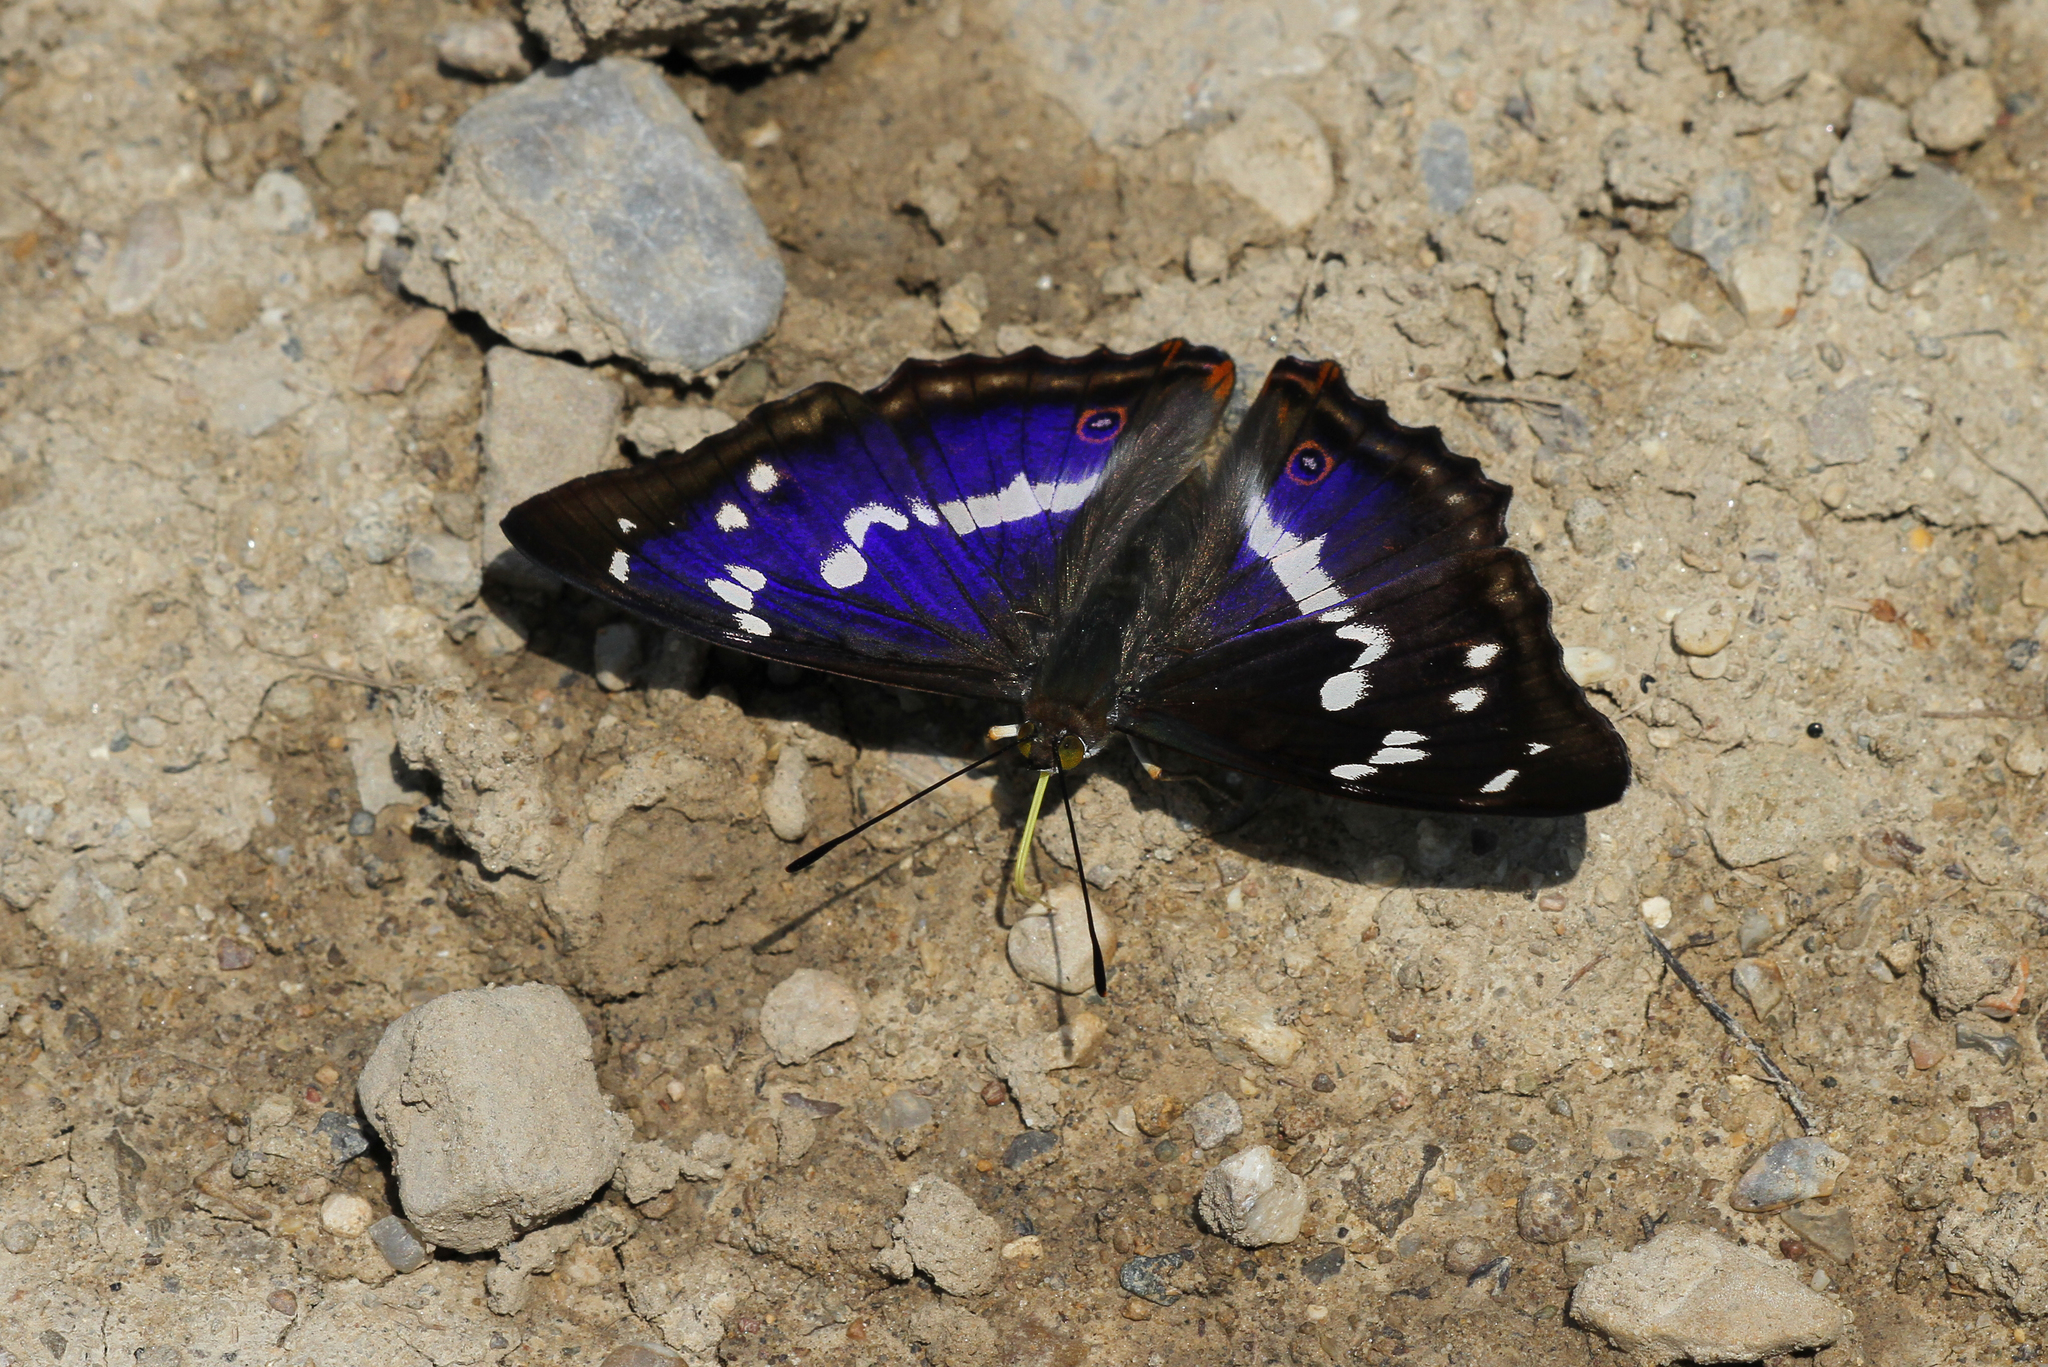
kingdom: Animalia
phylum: Arthropoda
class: Insecta
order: Lepidoptera
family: Nymphalidae
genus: Apatura
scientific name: Apatura iris
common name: Purple emperor
